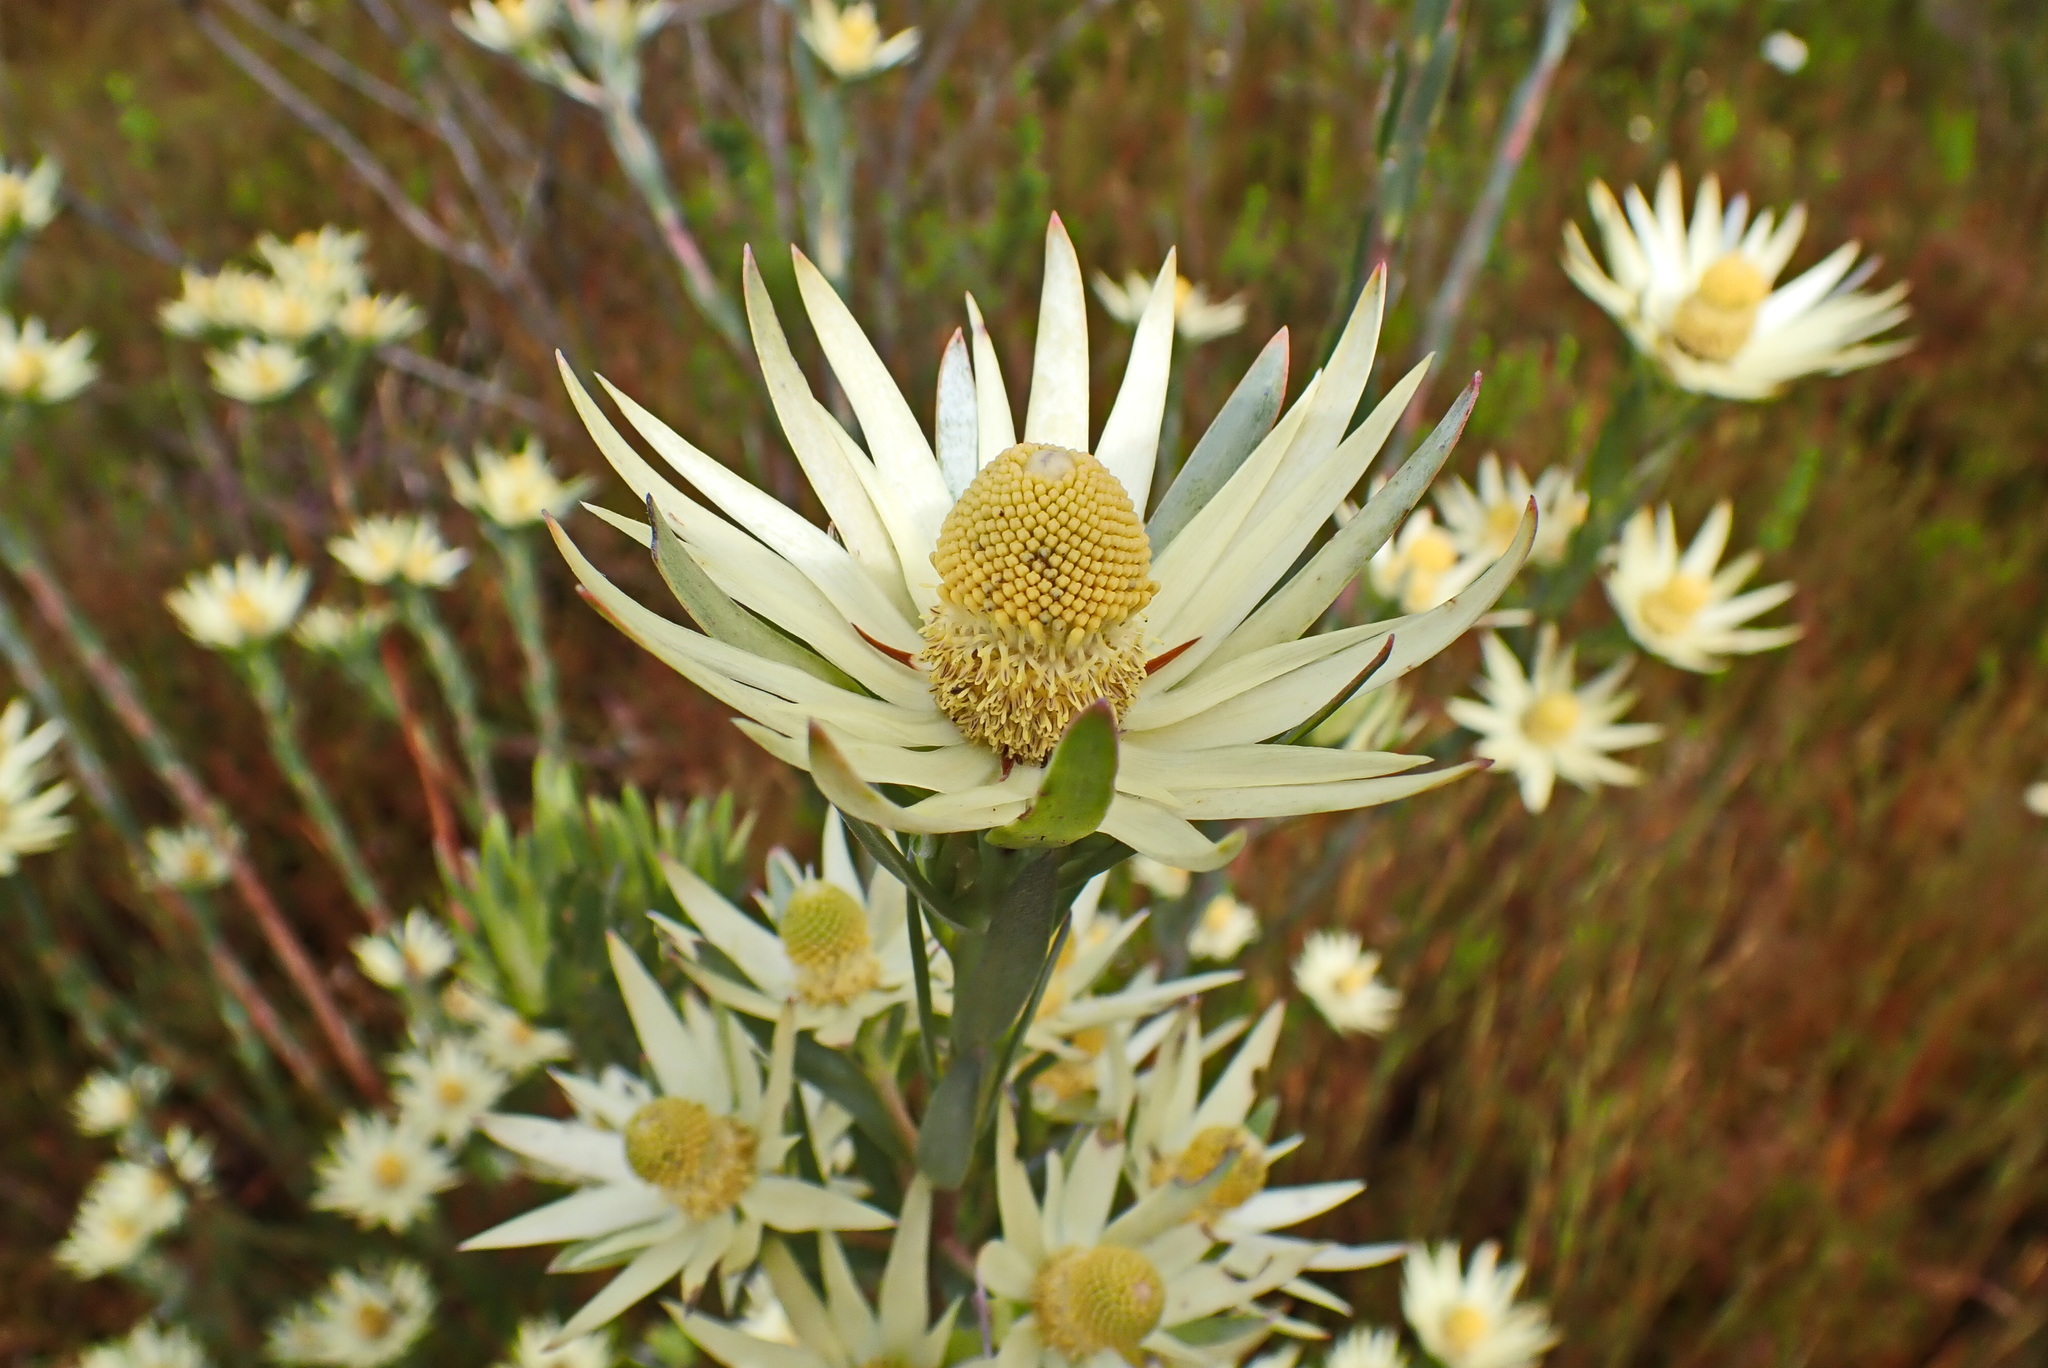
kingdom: Plantae
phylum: Tracheophyta
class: Magnoliopsida
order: Proteales
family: Proteaceae
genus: Leucadendron
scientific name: Leucadendron uliginosum
